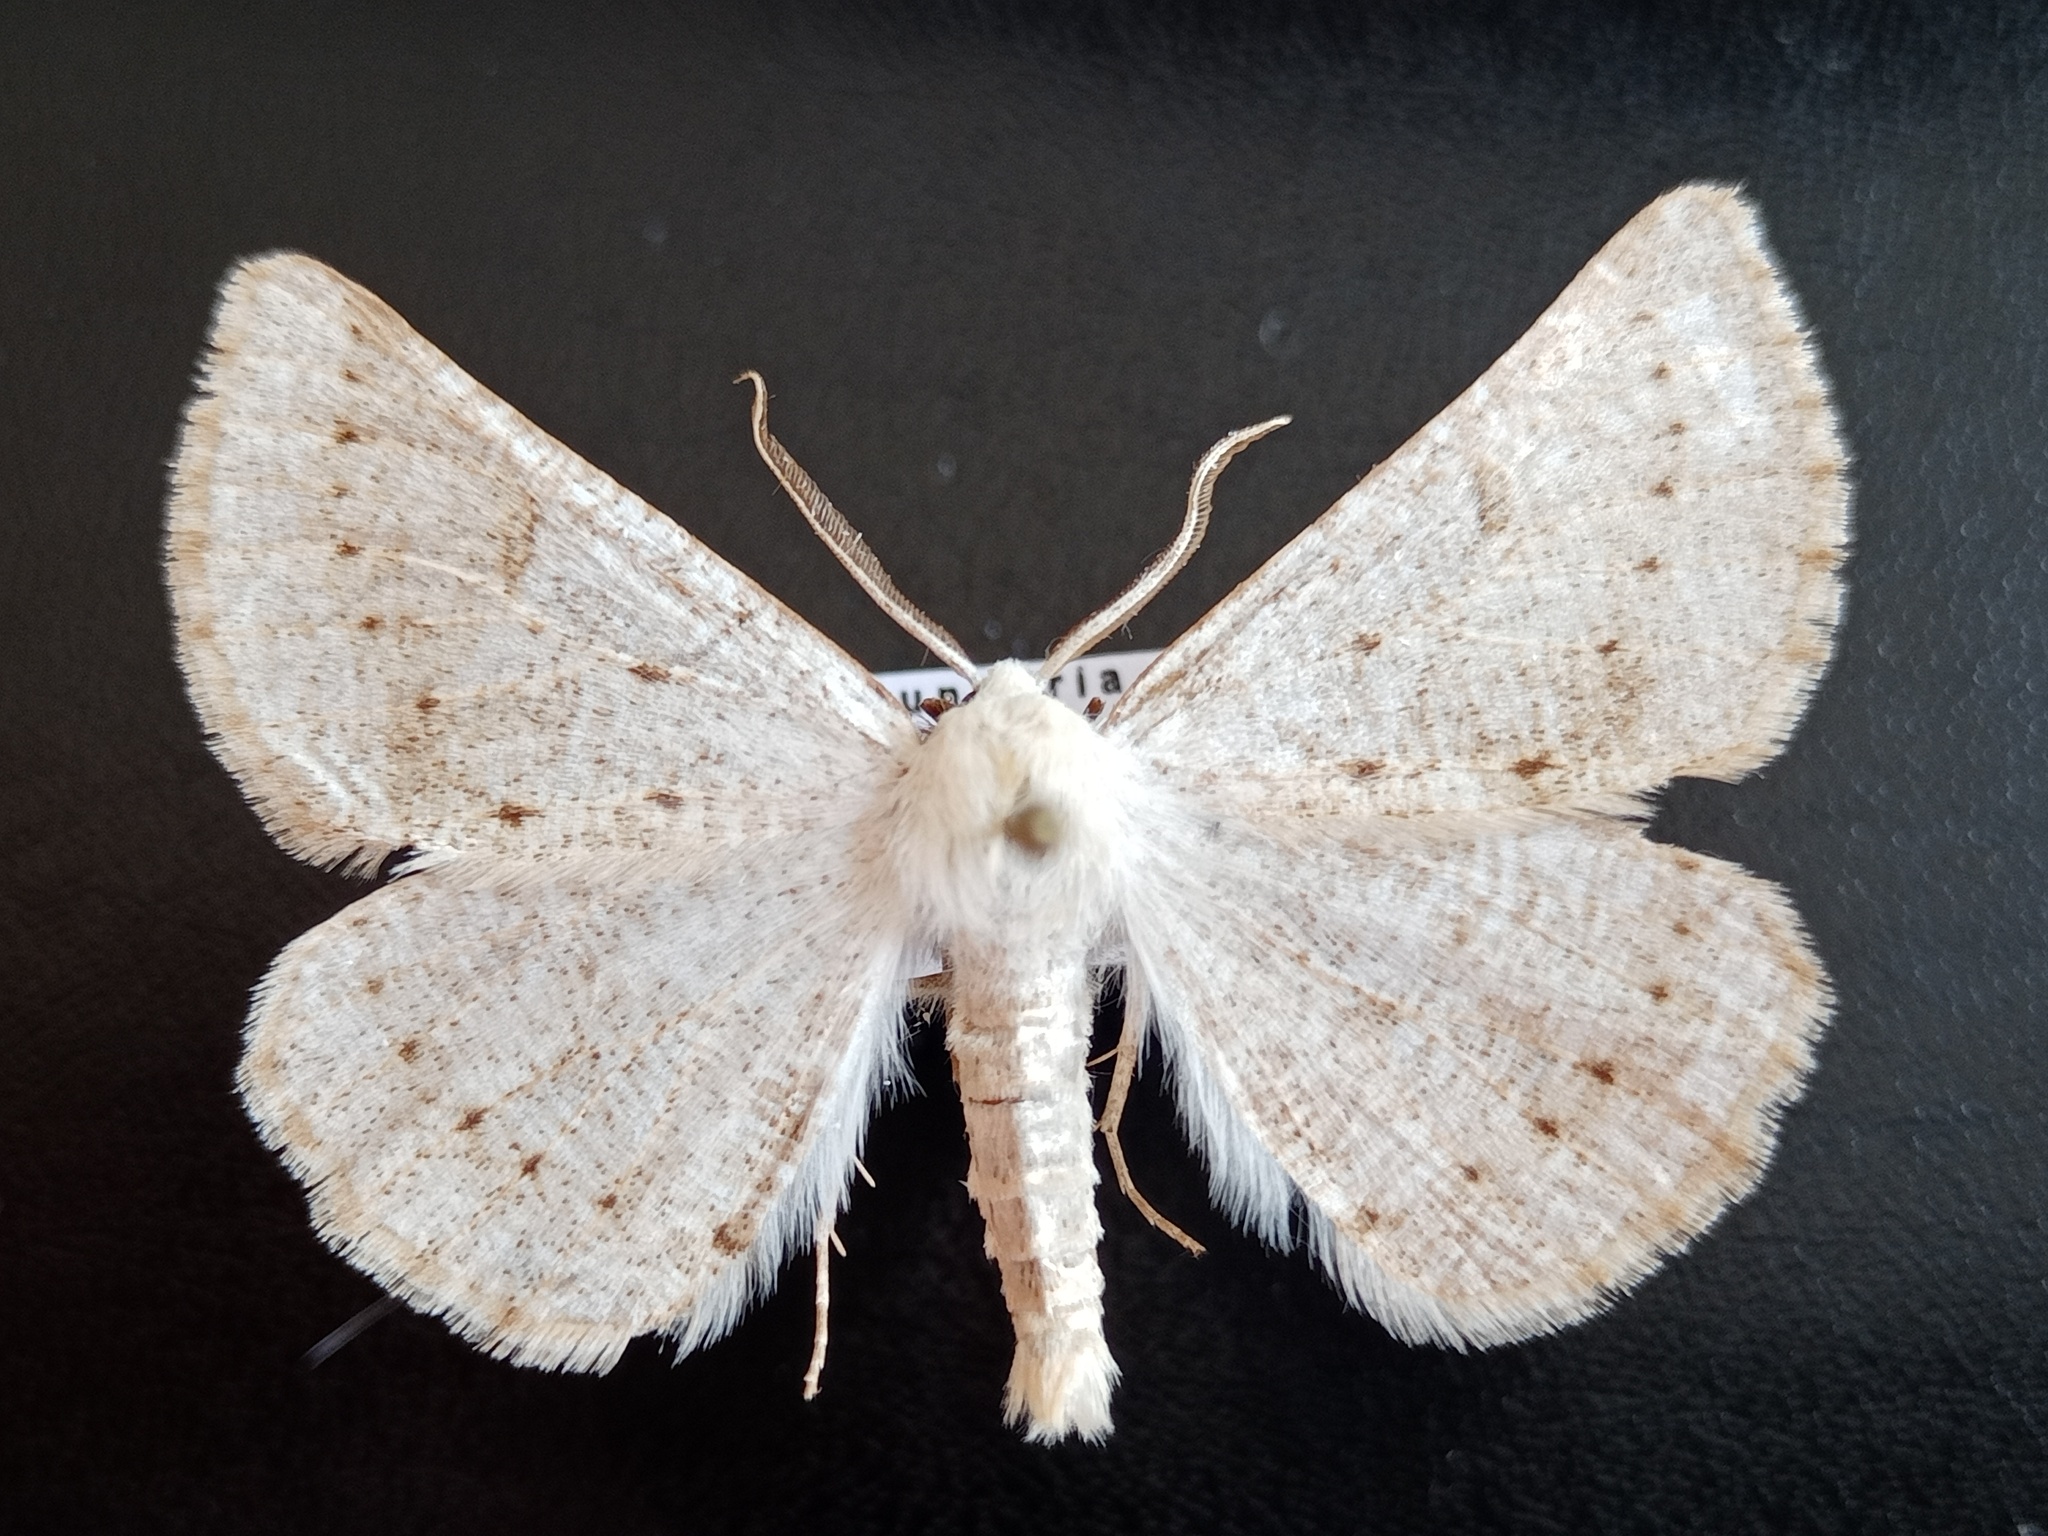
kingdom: Animalia
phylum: Arthropoda
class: Insecta
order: Lepidoptera
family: Geometridae
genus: Dyscia
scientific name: Dyscia conspersaria
